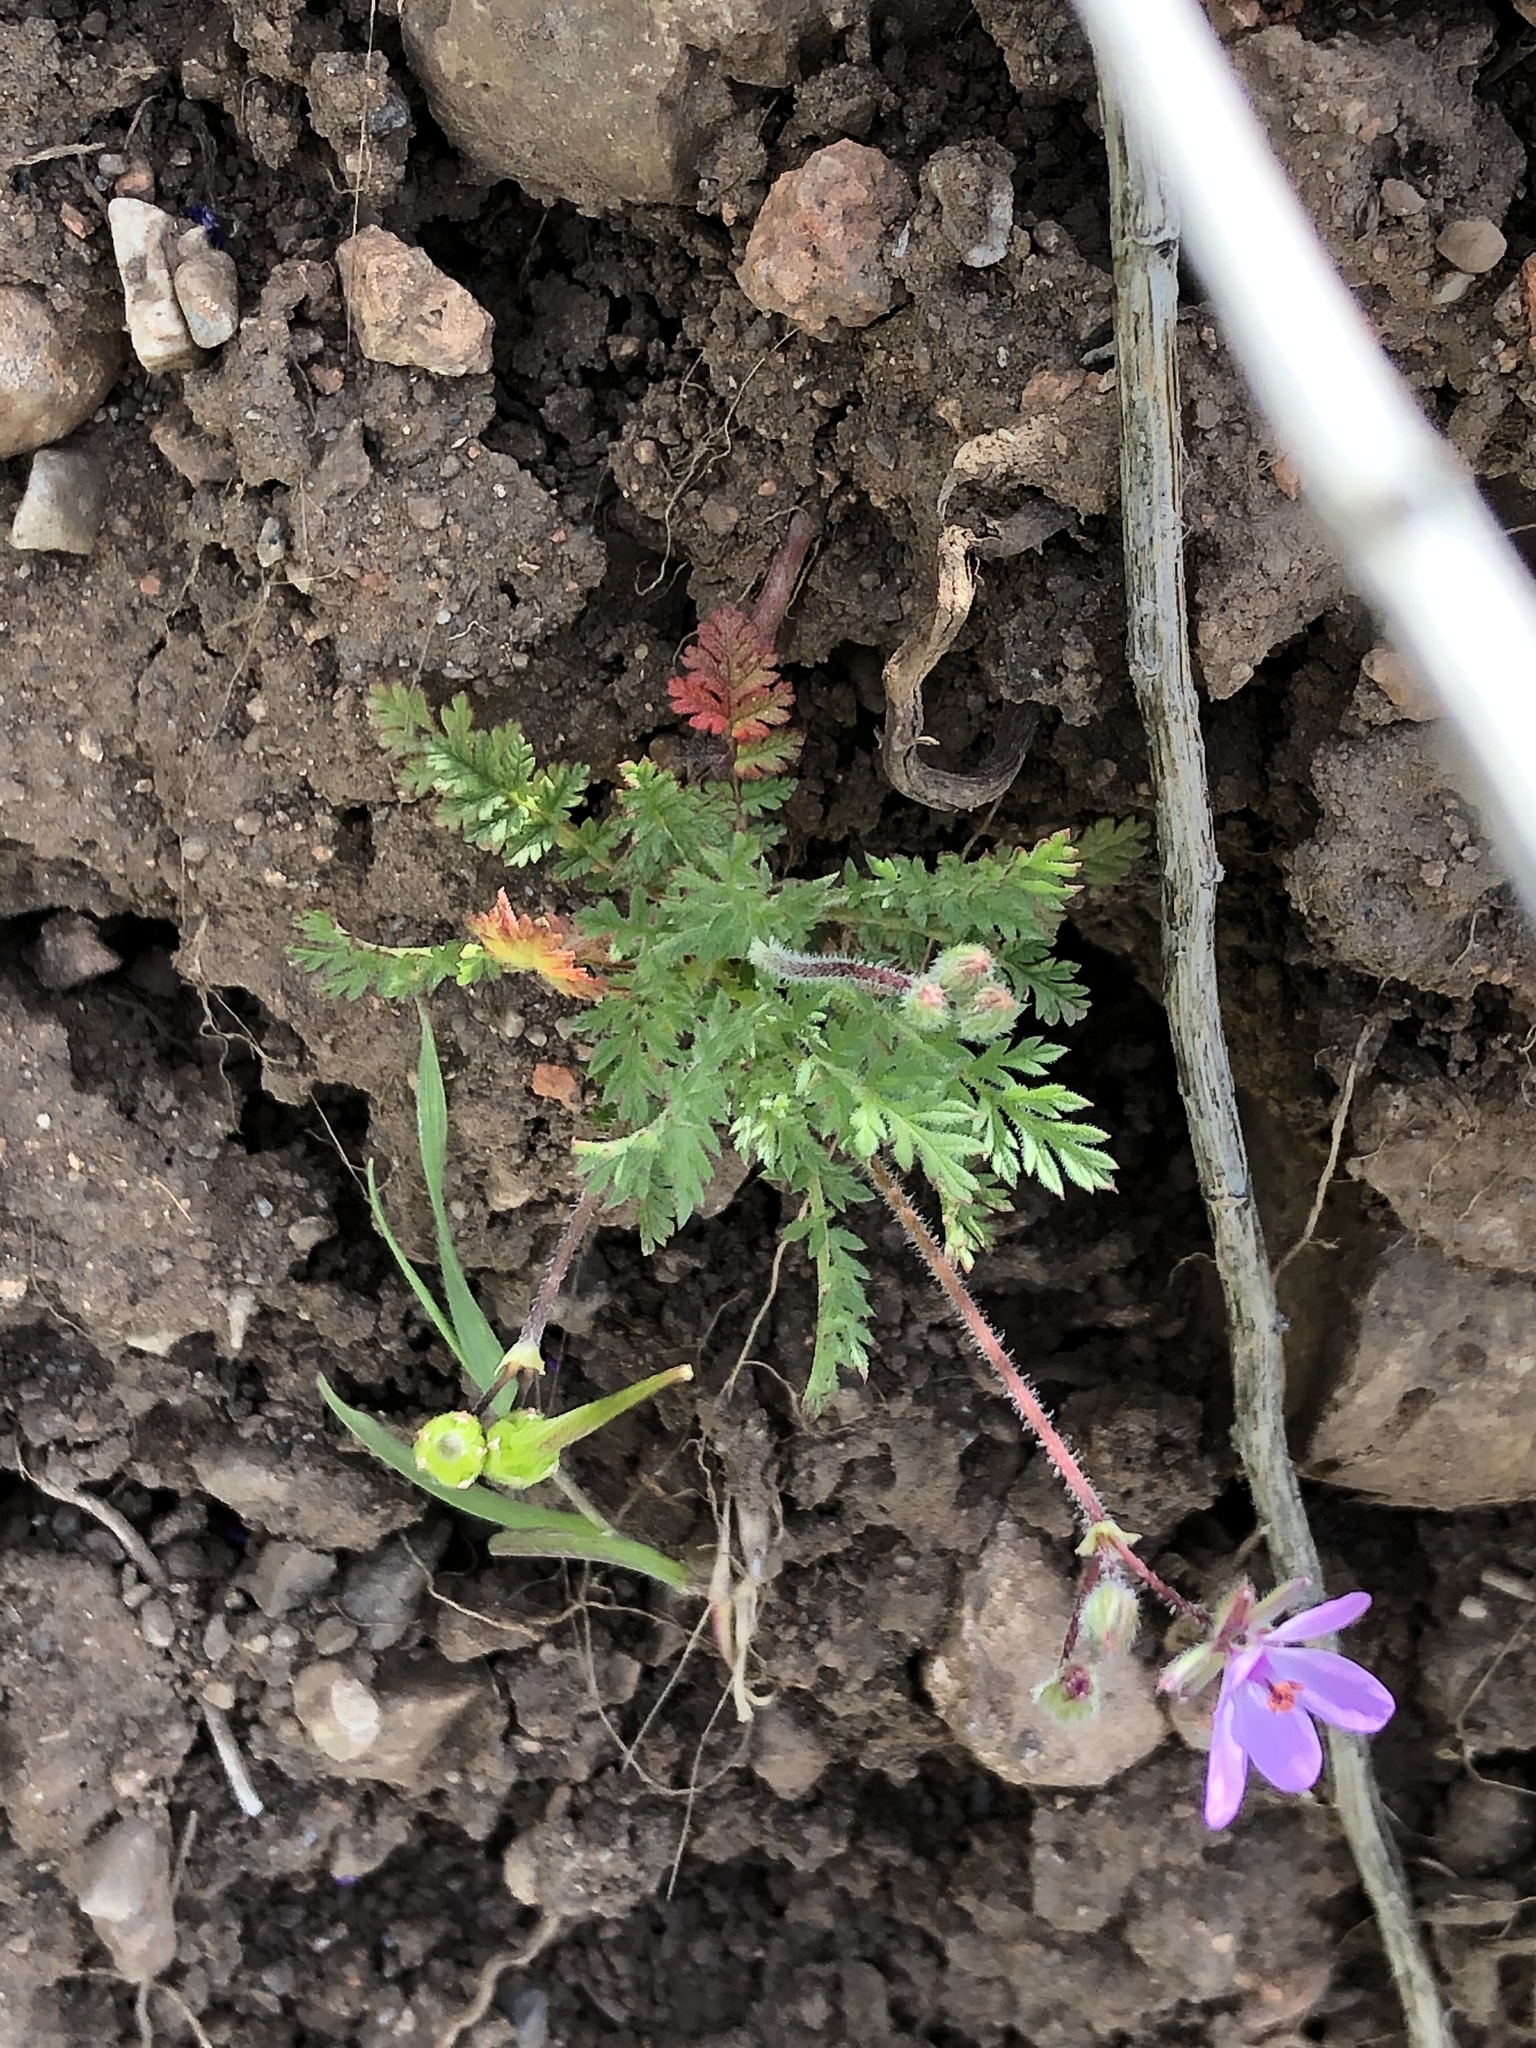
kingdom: Plantae
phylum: Tracheophyta
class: Magnoliopsida
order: Geraniales
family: Geraniaceae
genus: Erodium
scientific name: Erodium cicutarium
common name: Common stork's-bill
